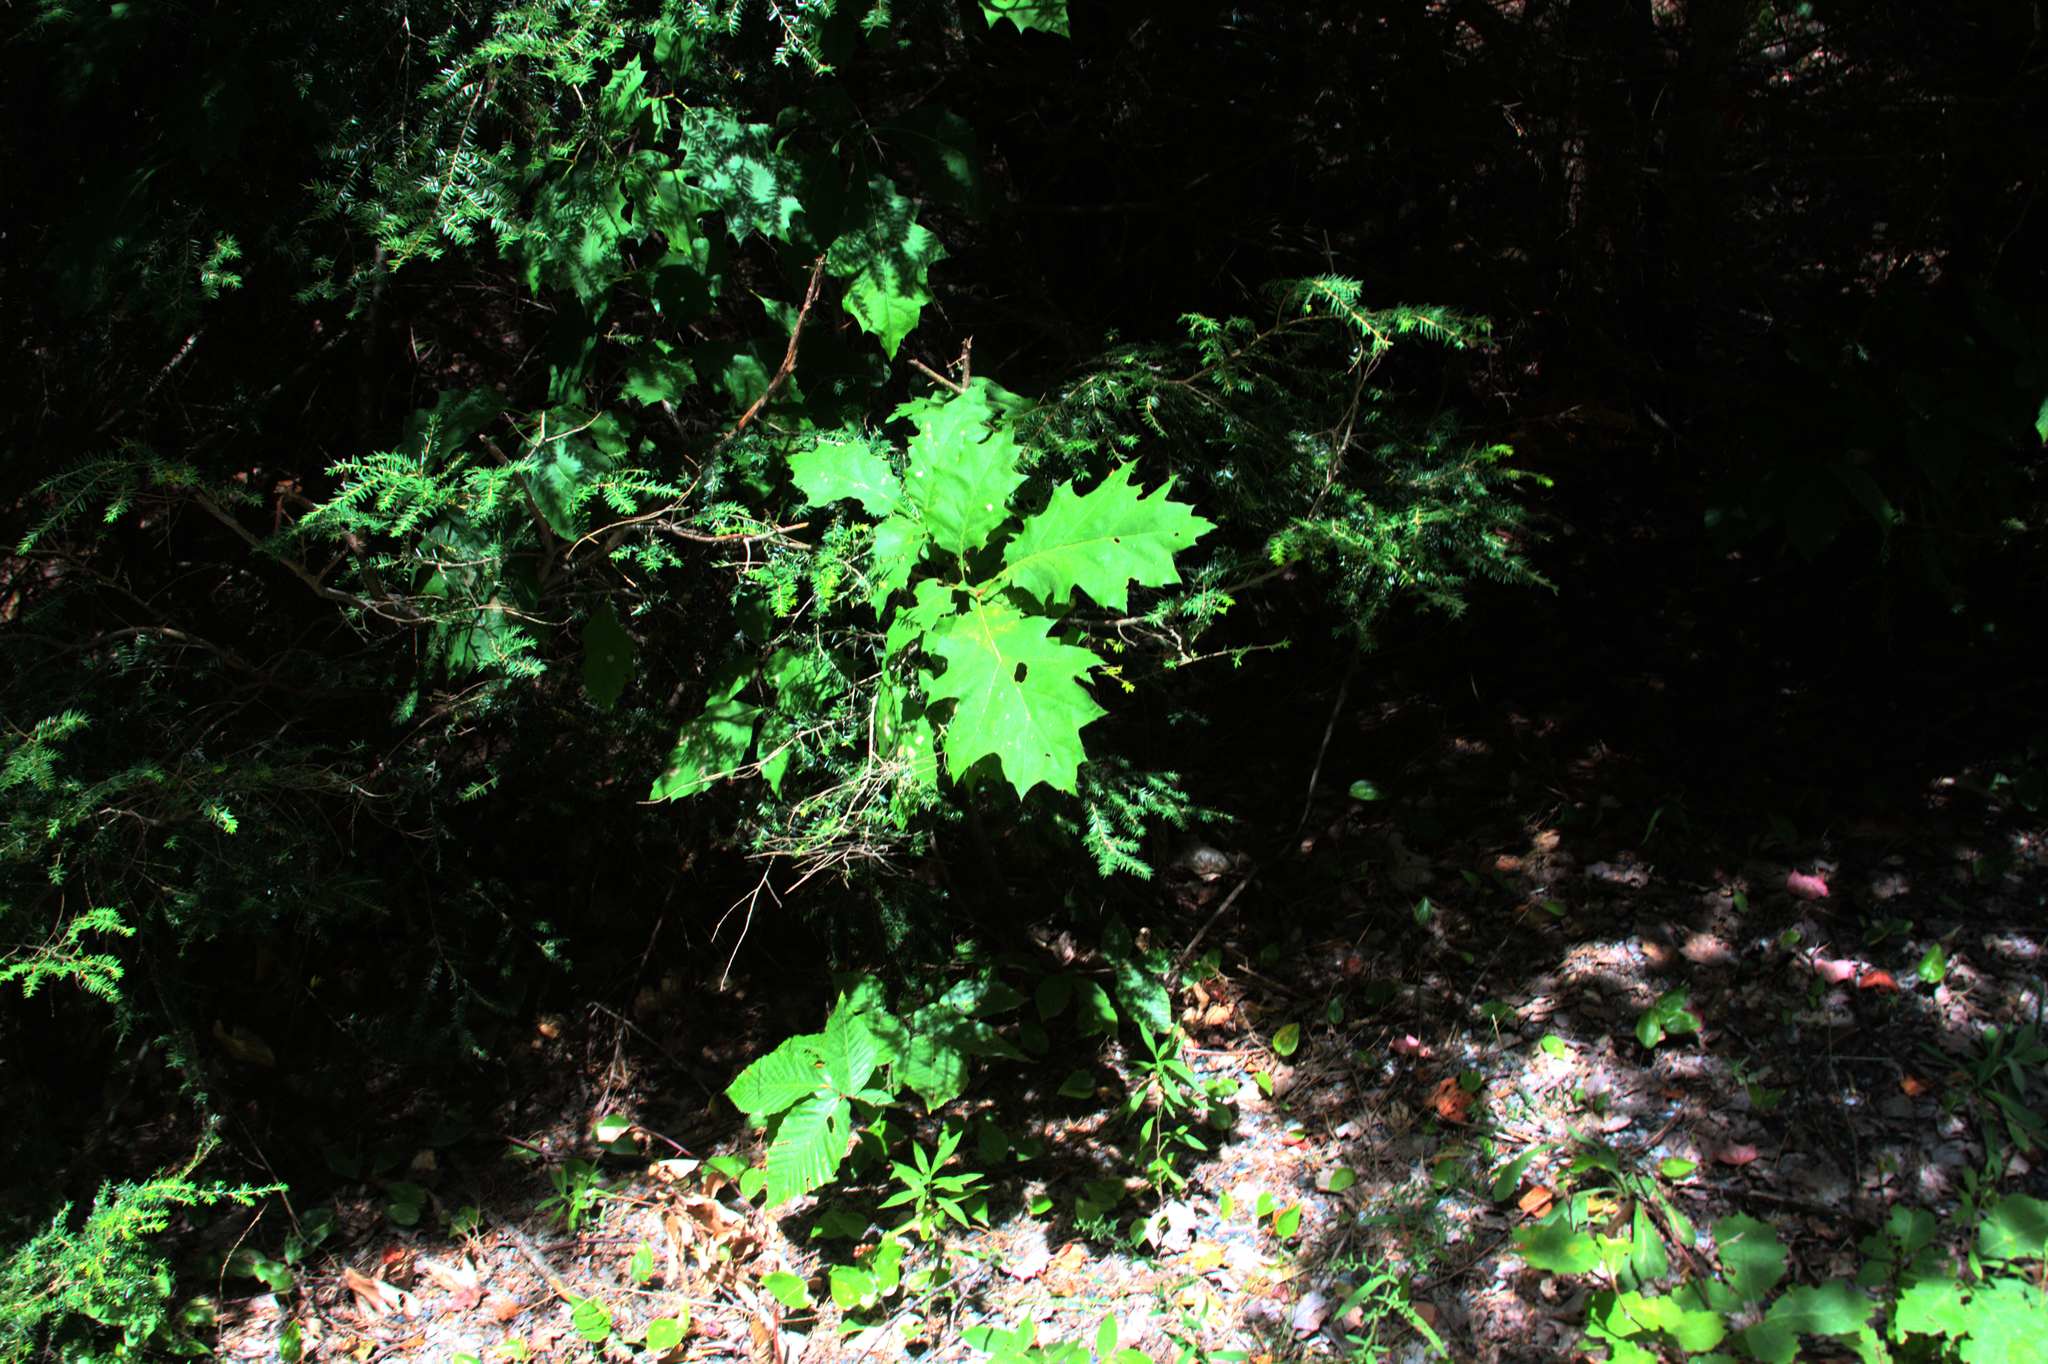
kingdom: Plantae
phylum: Tracheophyta
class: Magnoliopsida
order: Fagales
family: Fagaceae
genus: Quercus
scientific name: Quercus rubra
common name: Red oak
